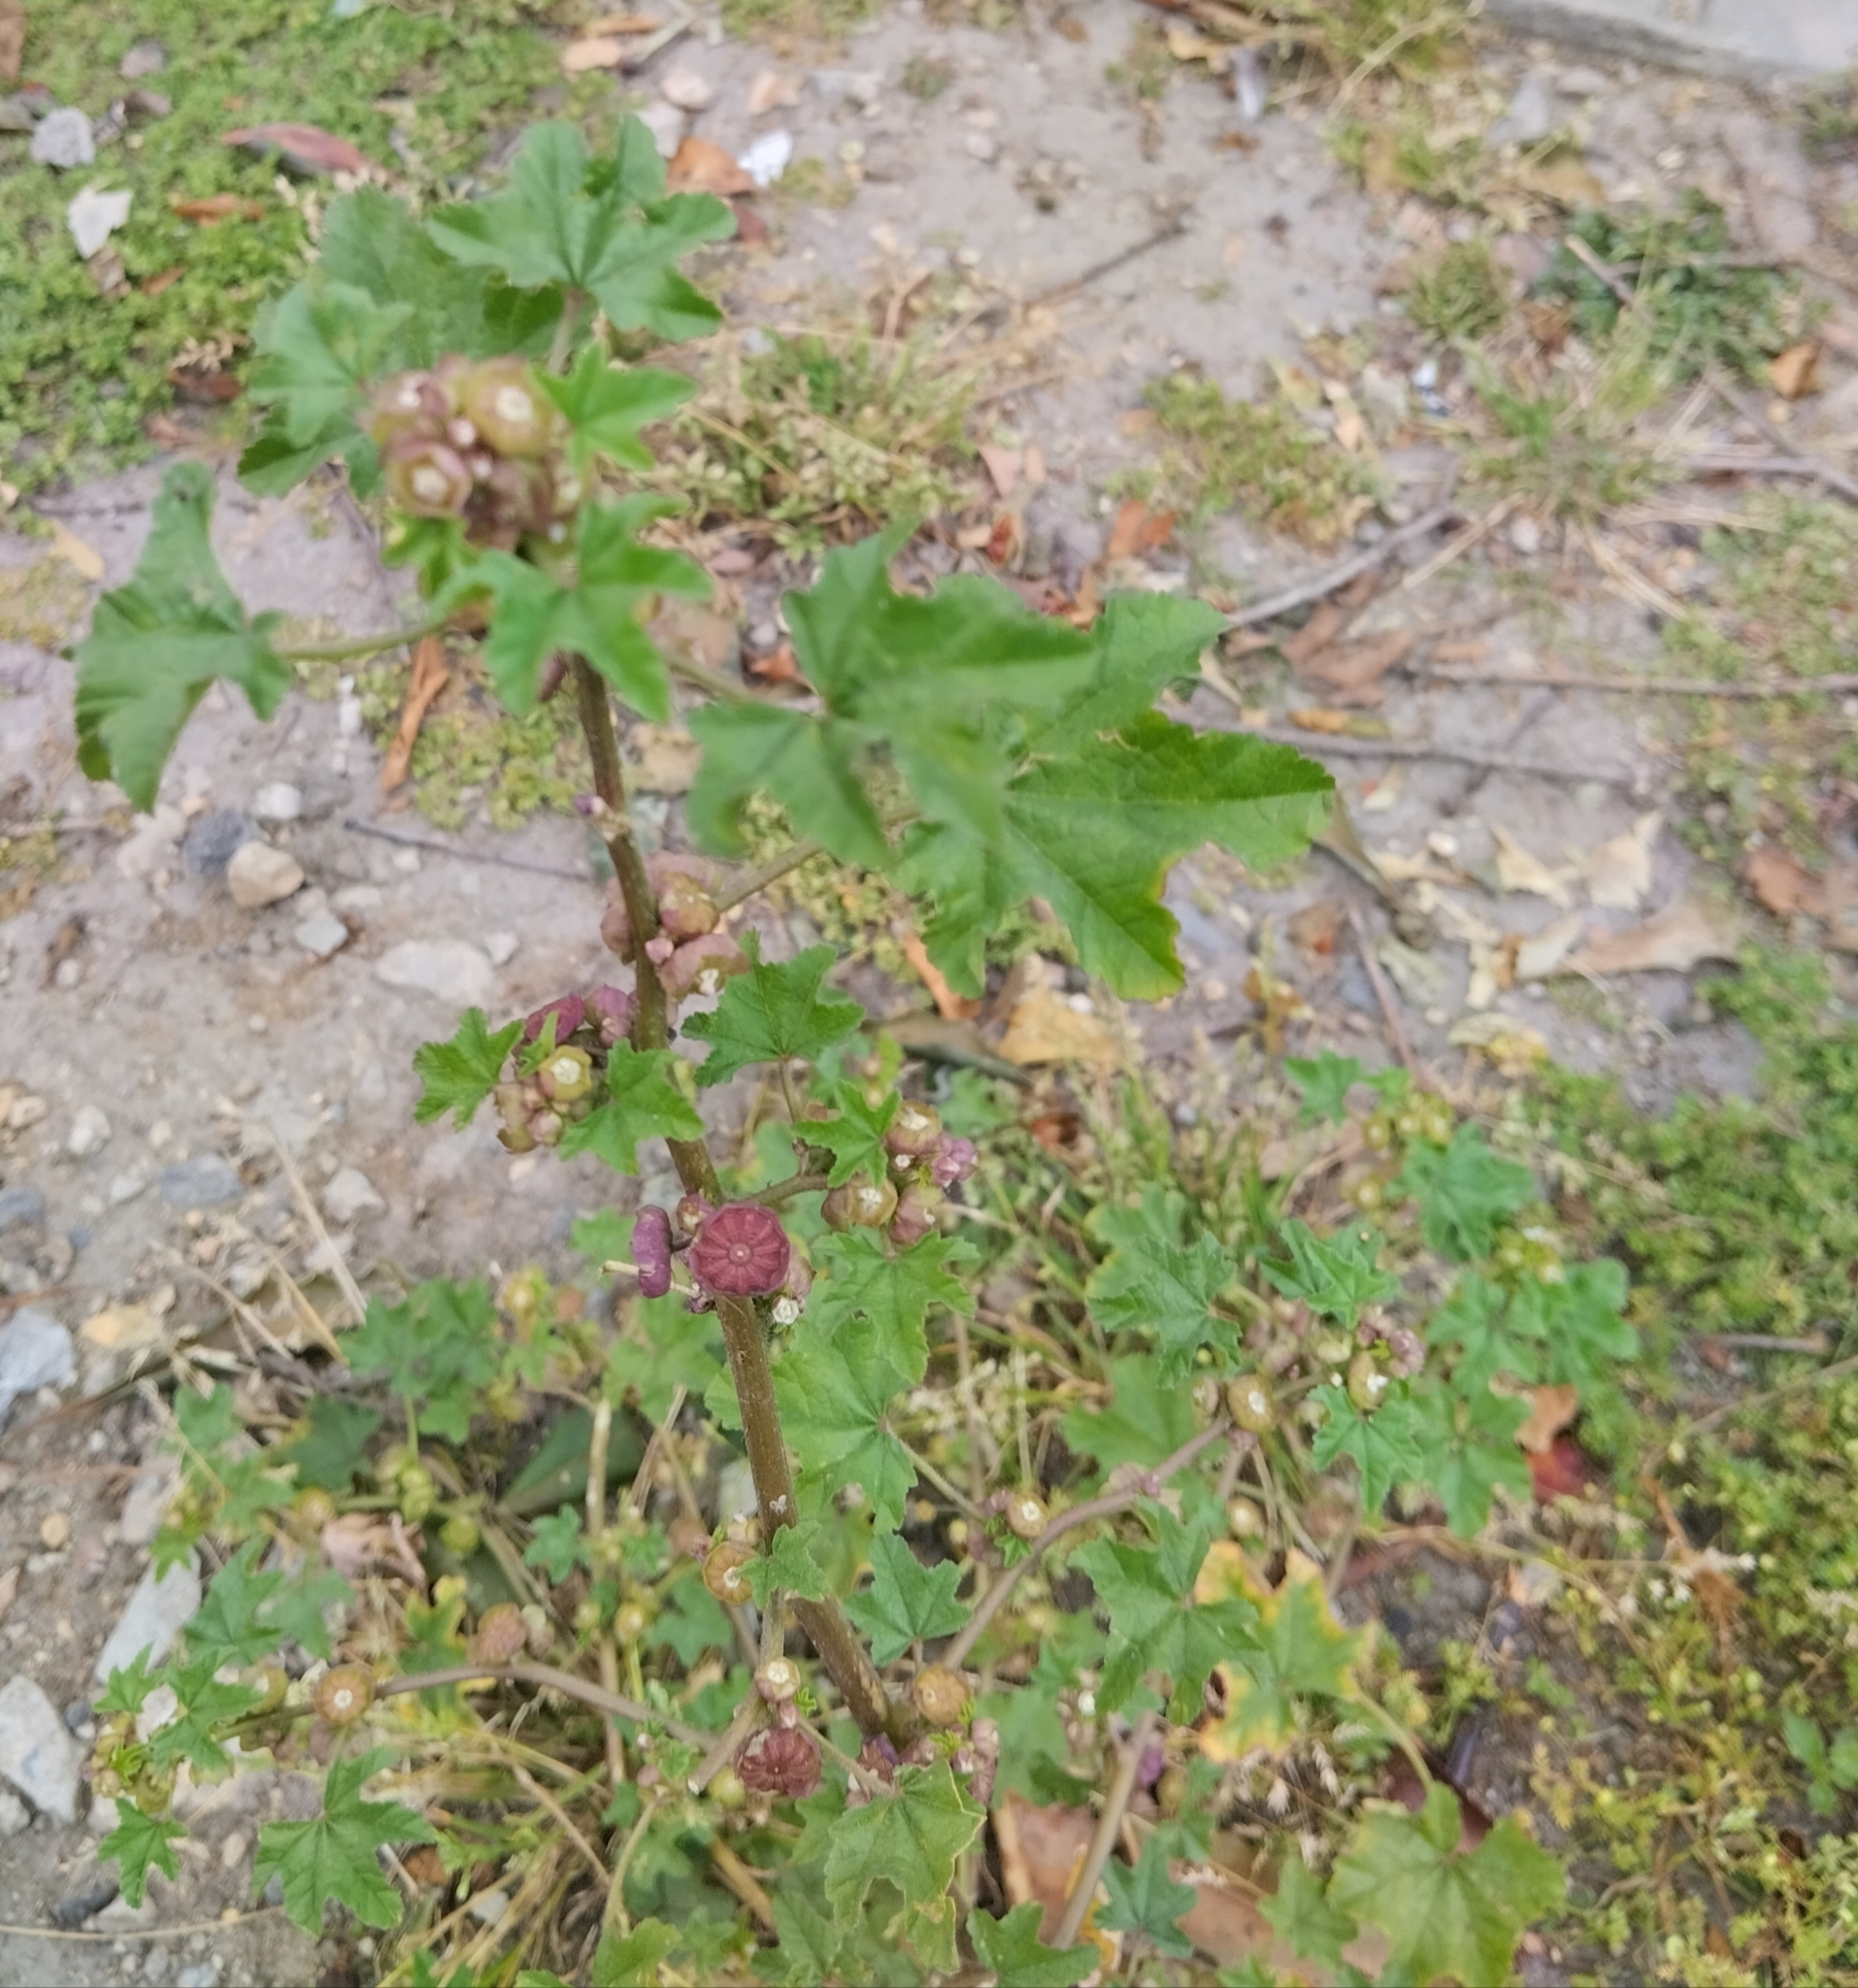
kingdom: Plantae
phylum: Tracheophyta
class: Magnoliopsida
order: Malvales
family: Malvaceae
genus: Malva
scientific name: Malva parviflora
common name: Least mallow
